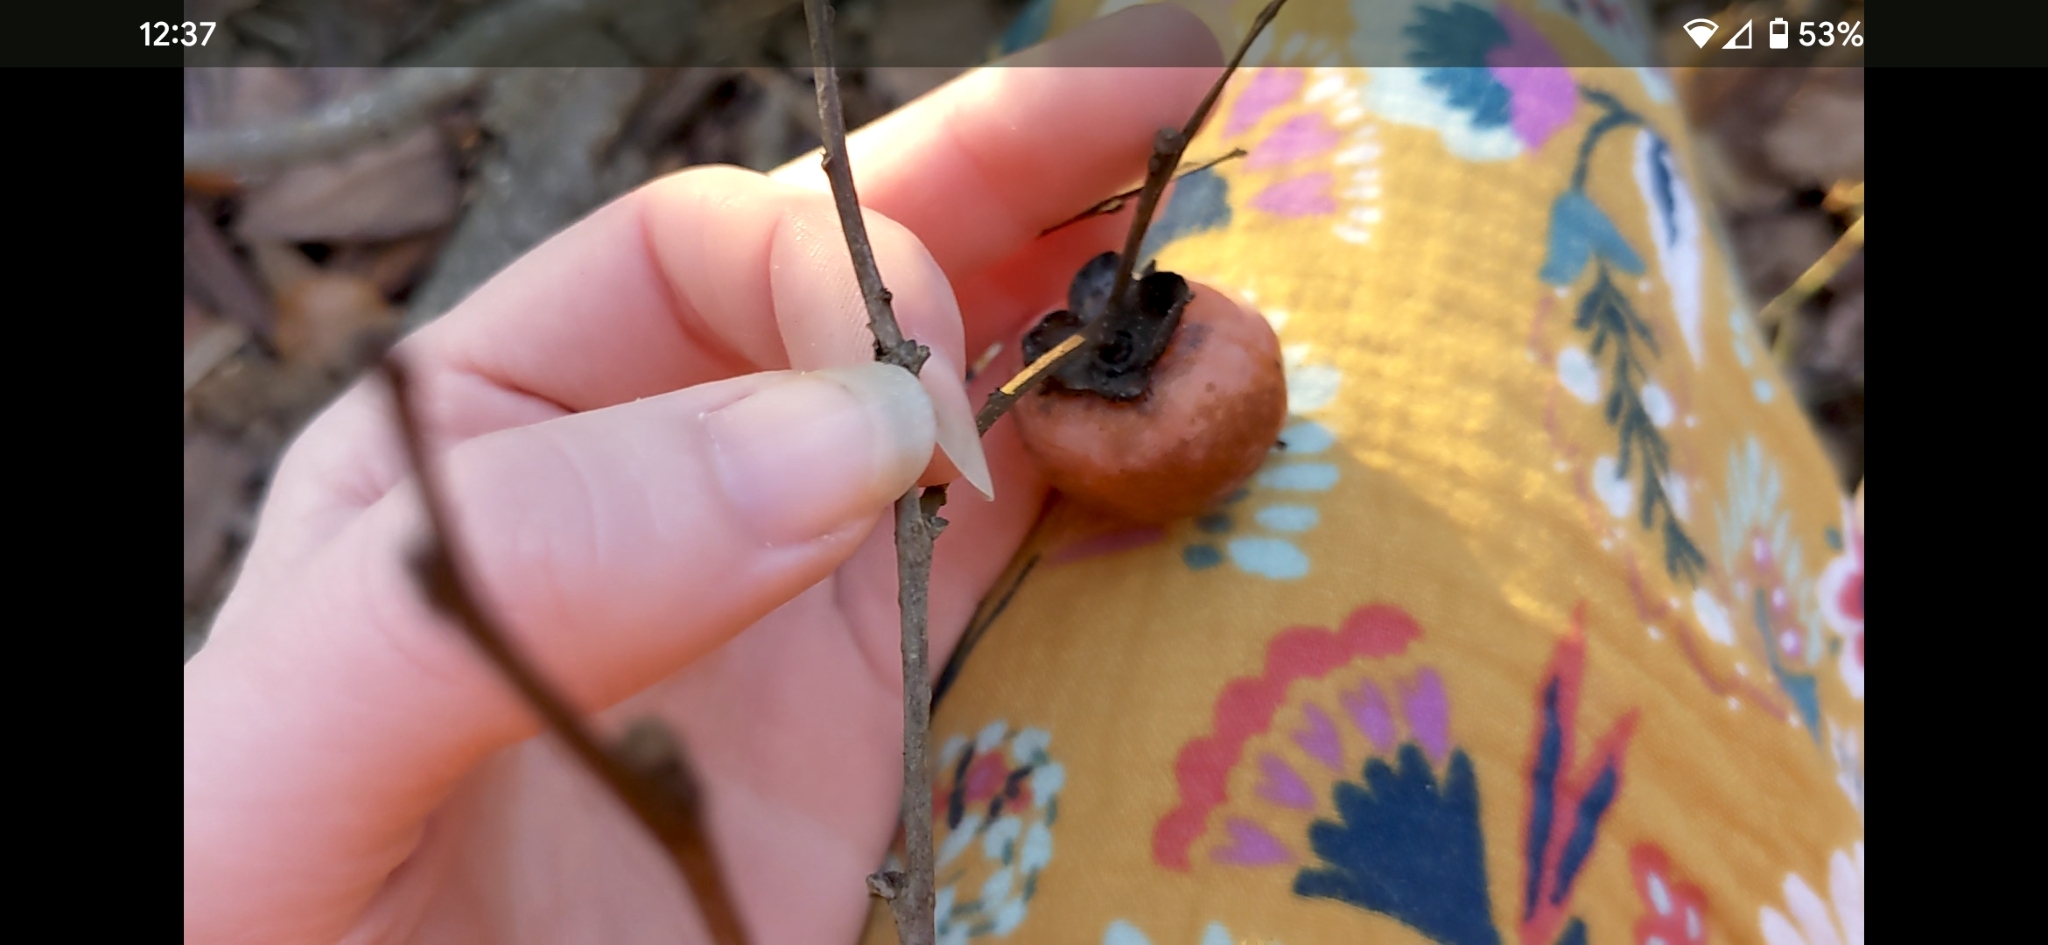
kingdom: Plantae
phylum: Tracheophyta
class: Magnoliopsida
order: Ericales
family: Ebenaceae
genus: Diospyros
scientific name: Diospyros virginiana
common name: Persimmon
